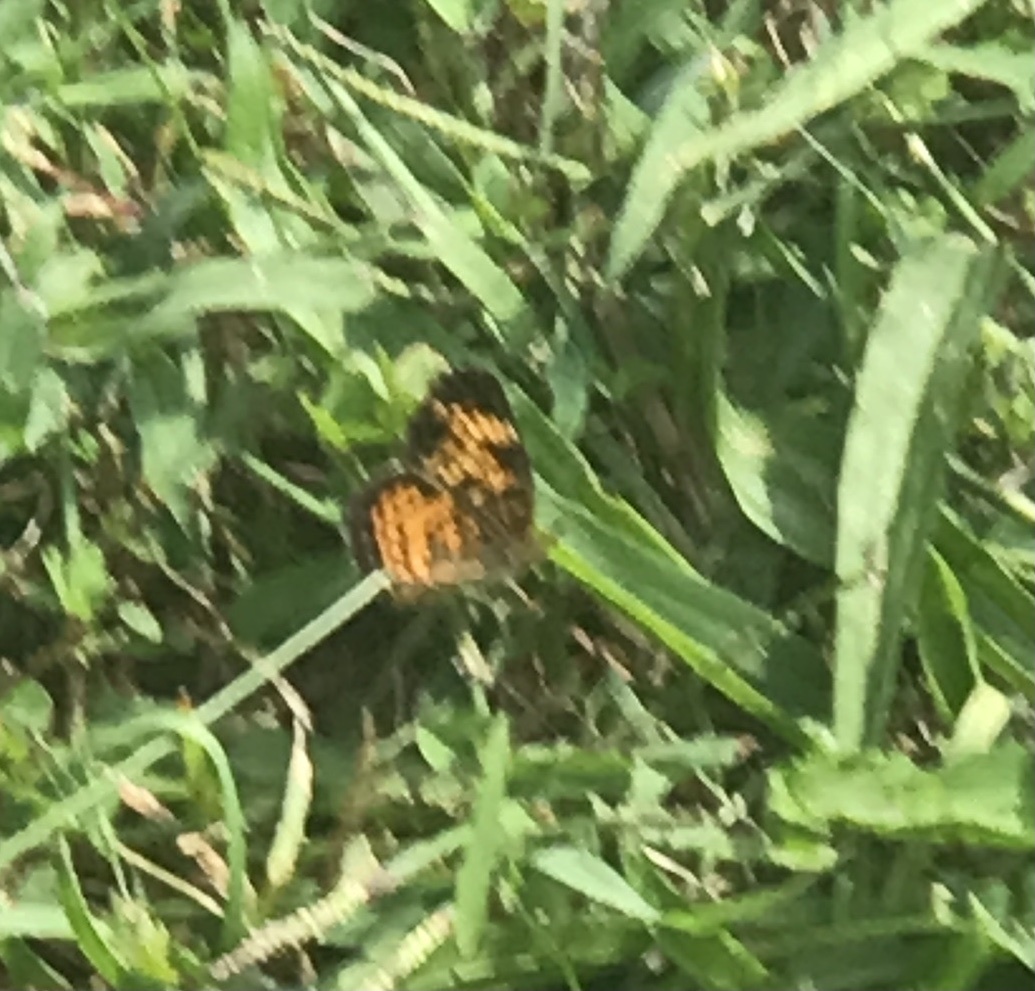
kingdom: Animalia
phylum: Arthropoda
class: Insecta
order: Lepidoptera
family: Nymphalidae
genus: Phyciodes
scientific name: Phyciodes tharos
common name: Pearl crescent
